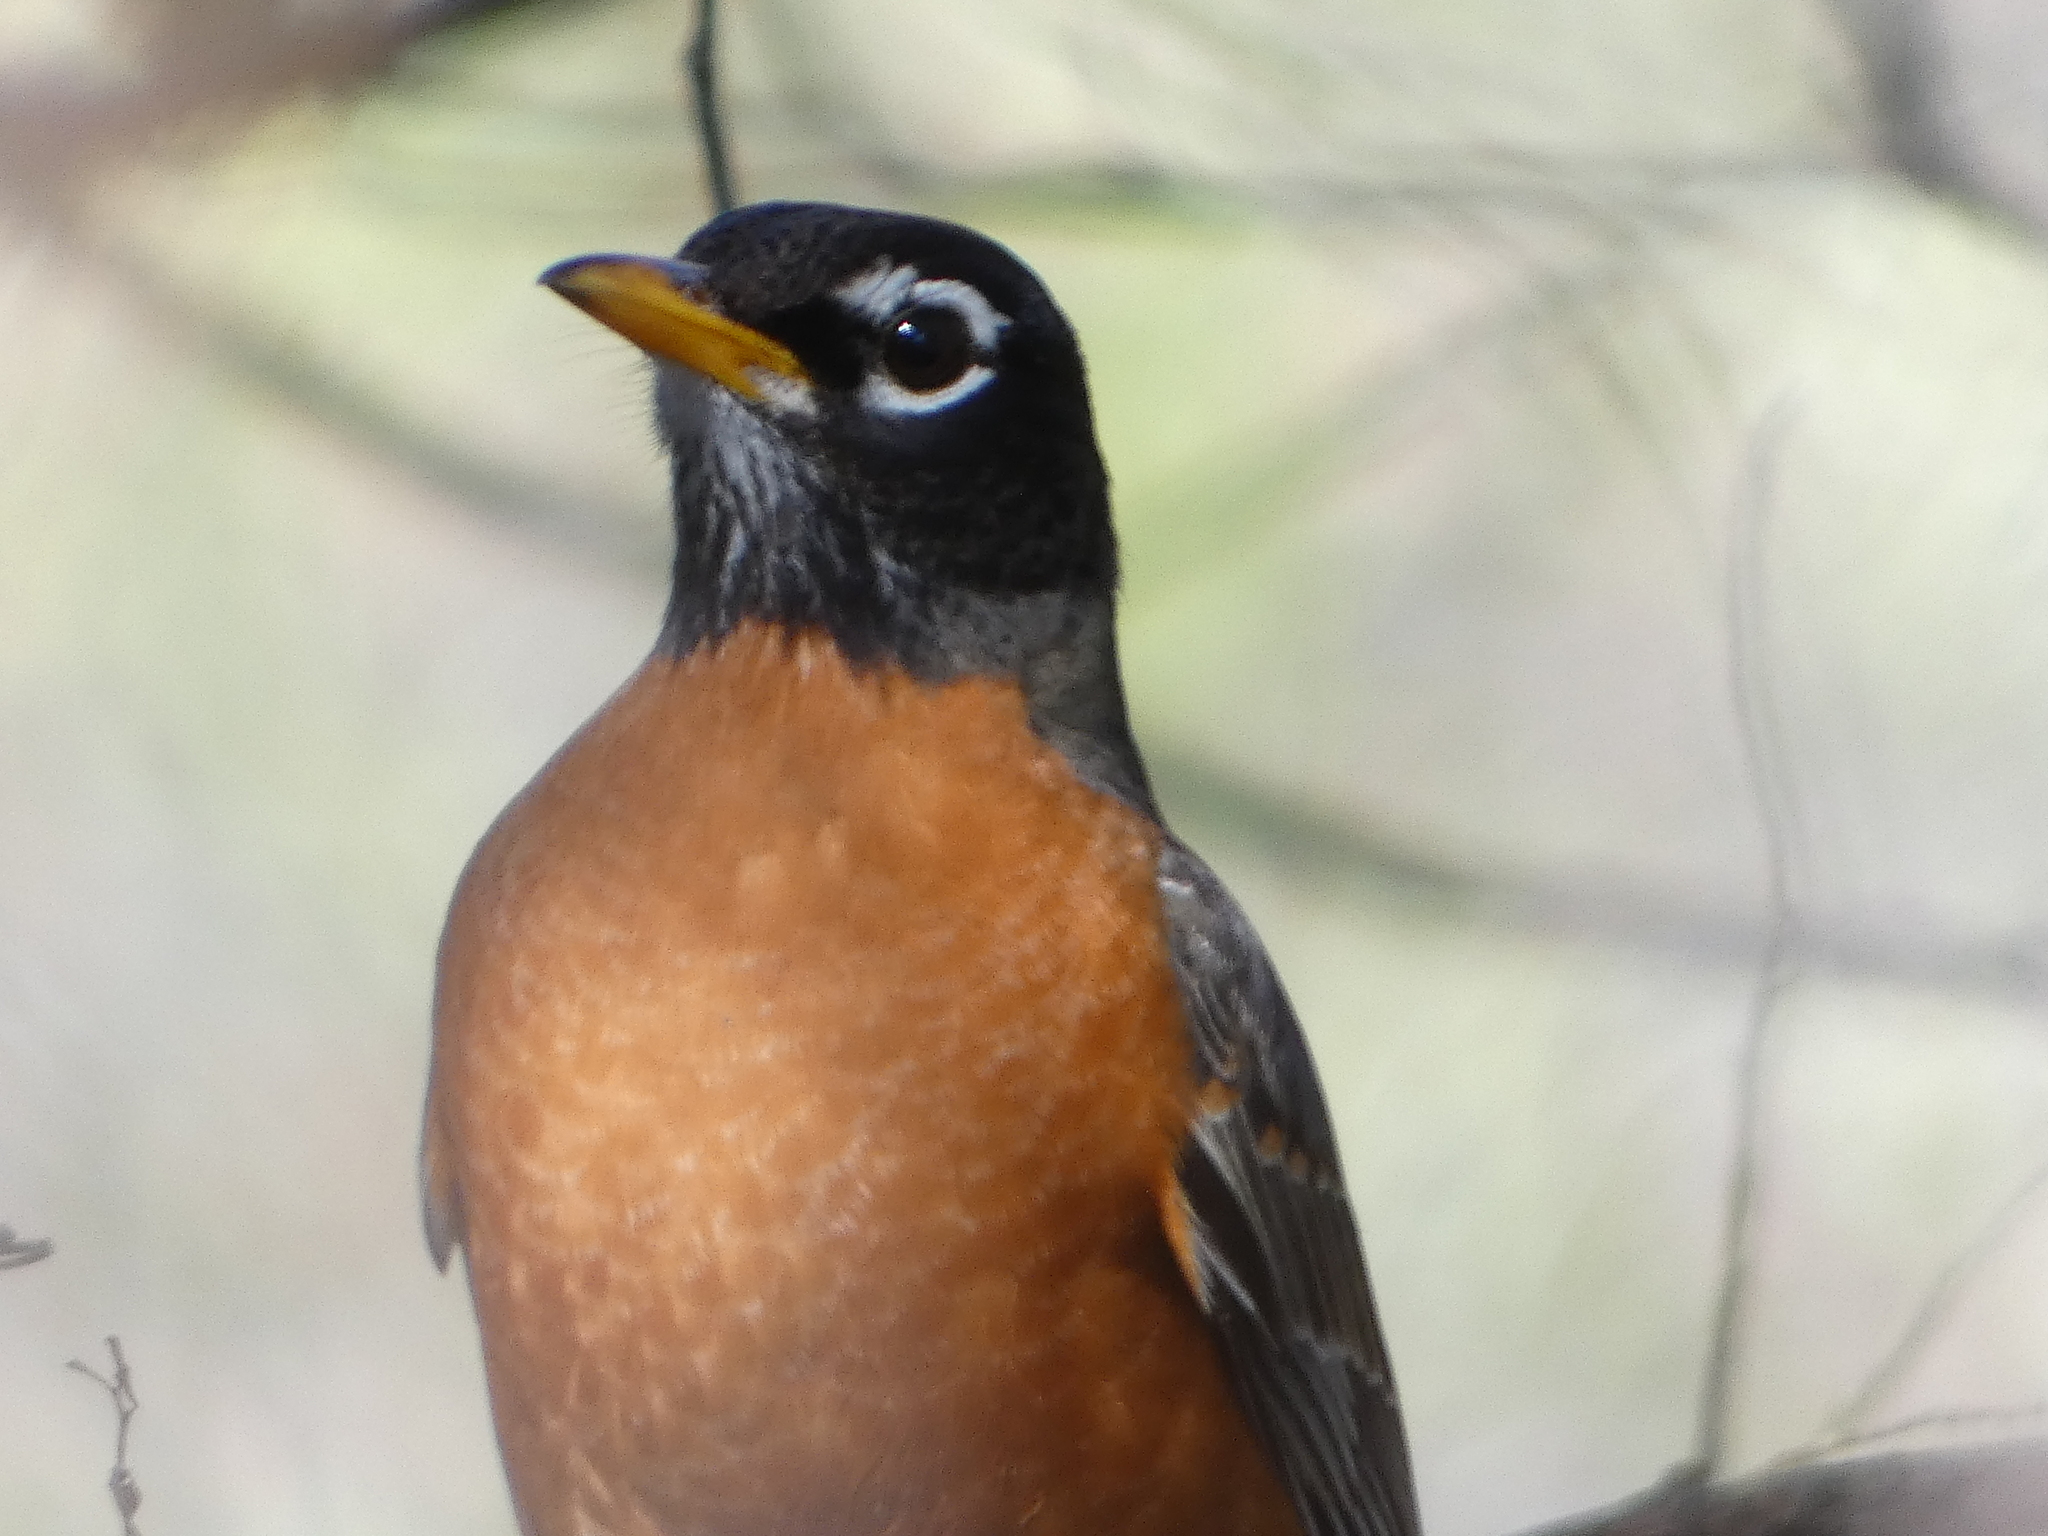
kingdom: Animalia
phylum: Chordata
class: Aves
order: Passeriformes
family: Turdidae
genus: Turdus
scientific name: Turdus migratorius
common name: American robin
